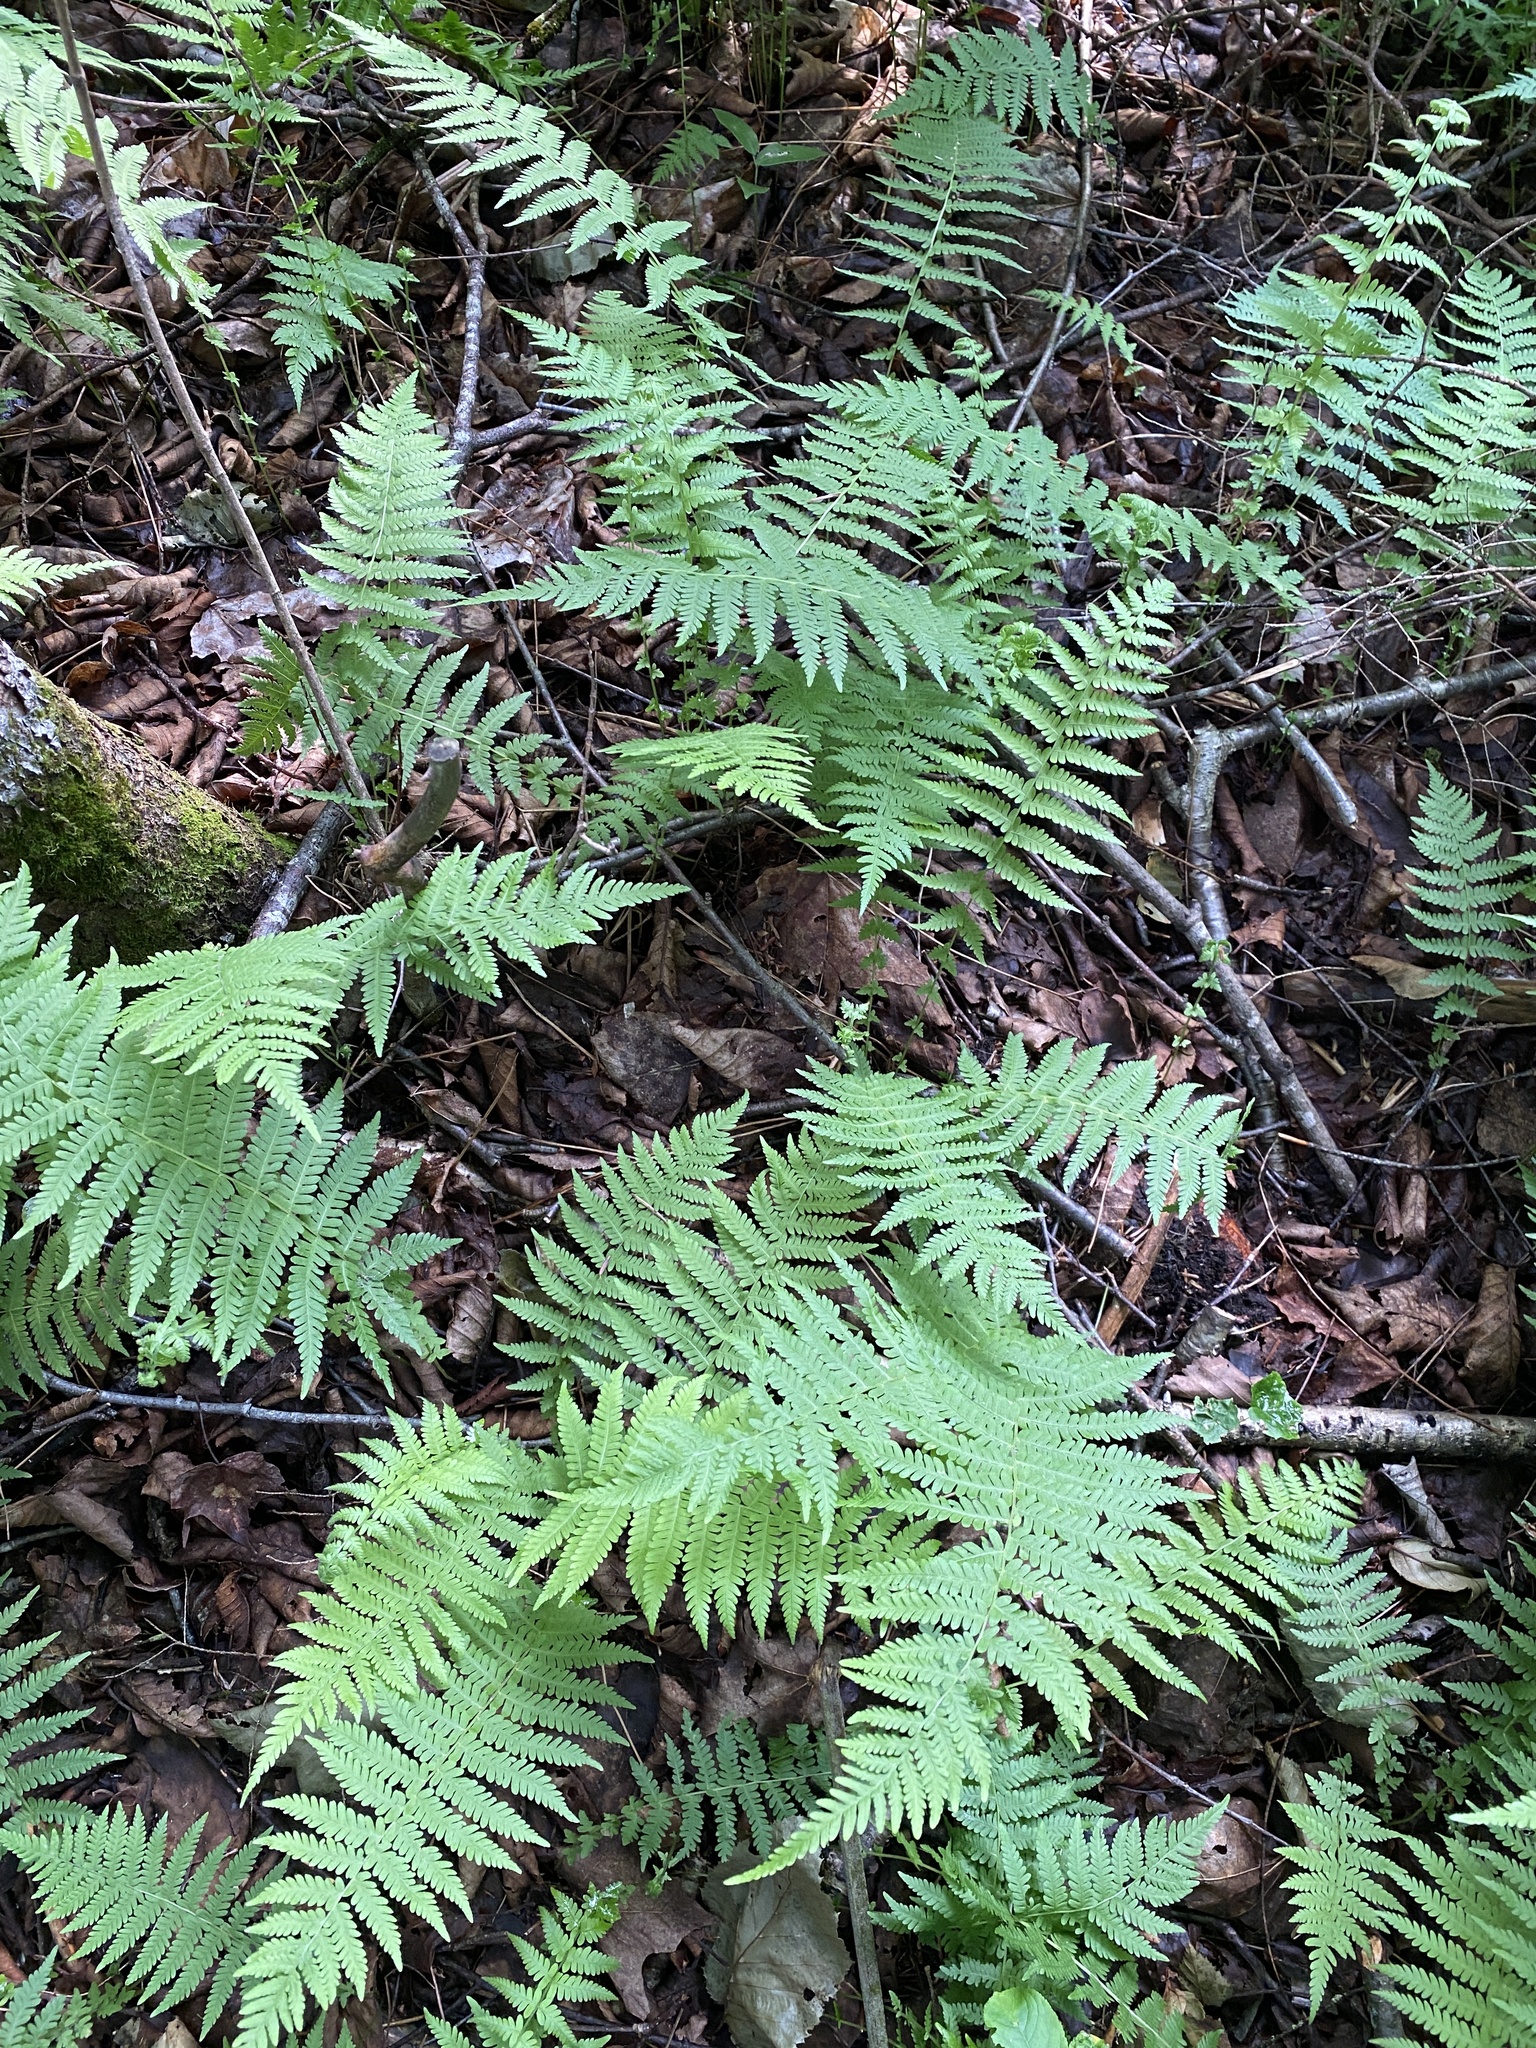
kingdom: Plantae
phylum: Tracheophyta
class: Polypodiopsida
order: Polypodiales
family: Thelypteridaceae
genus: Amauropelta
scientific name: Amauropelta noveboracensis
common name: New york fern
